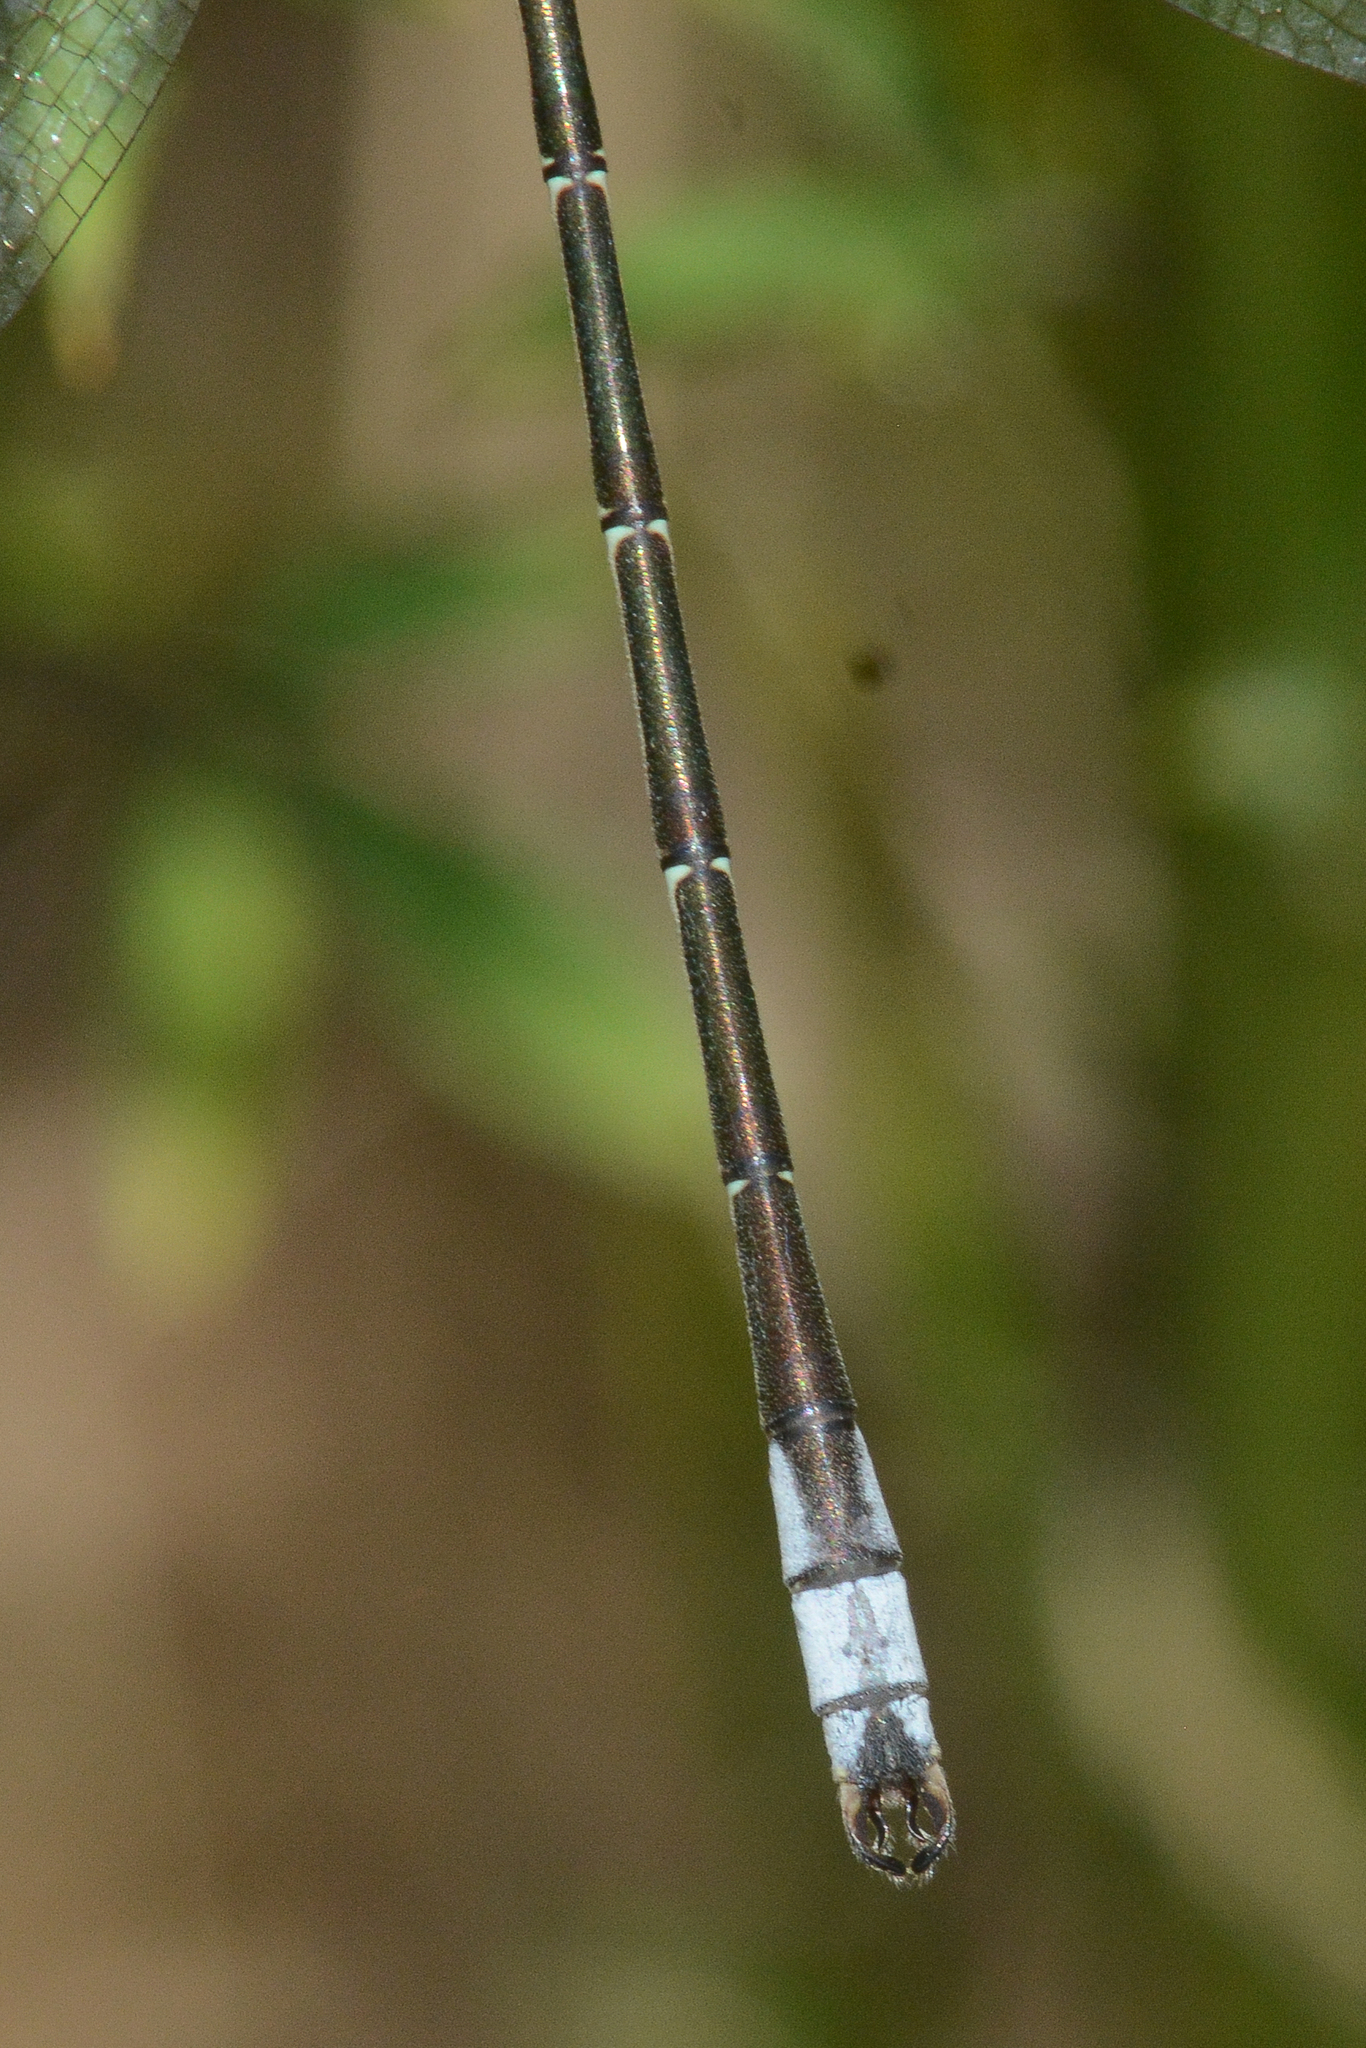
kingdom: Animalia
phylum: Arthropoda
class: Insecta
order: Odonata
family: Lestidae
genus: Lestes
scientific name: Lestes unguiculatus
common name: Lyre-tipped spreadwing
